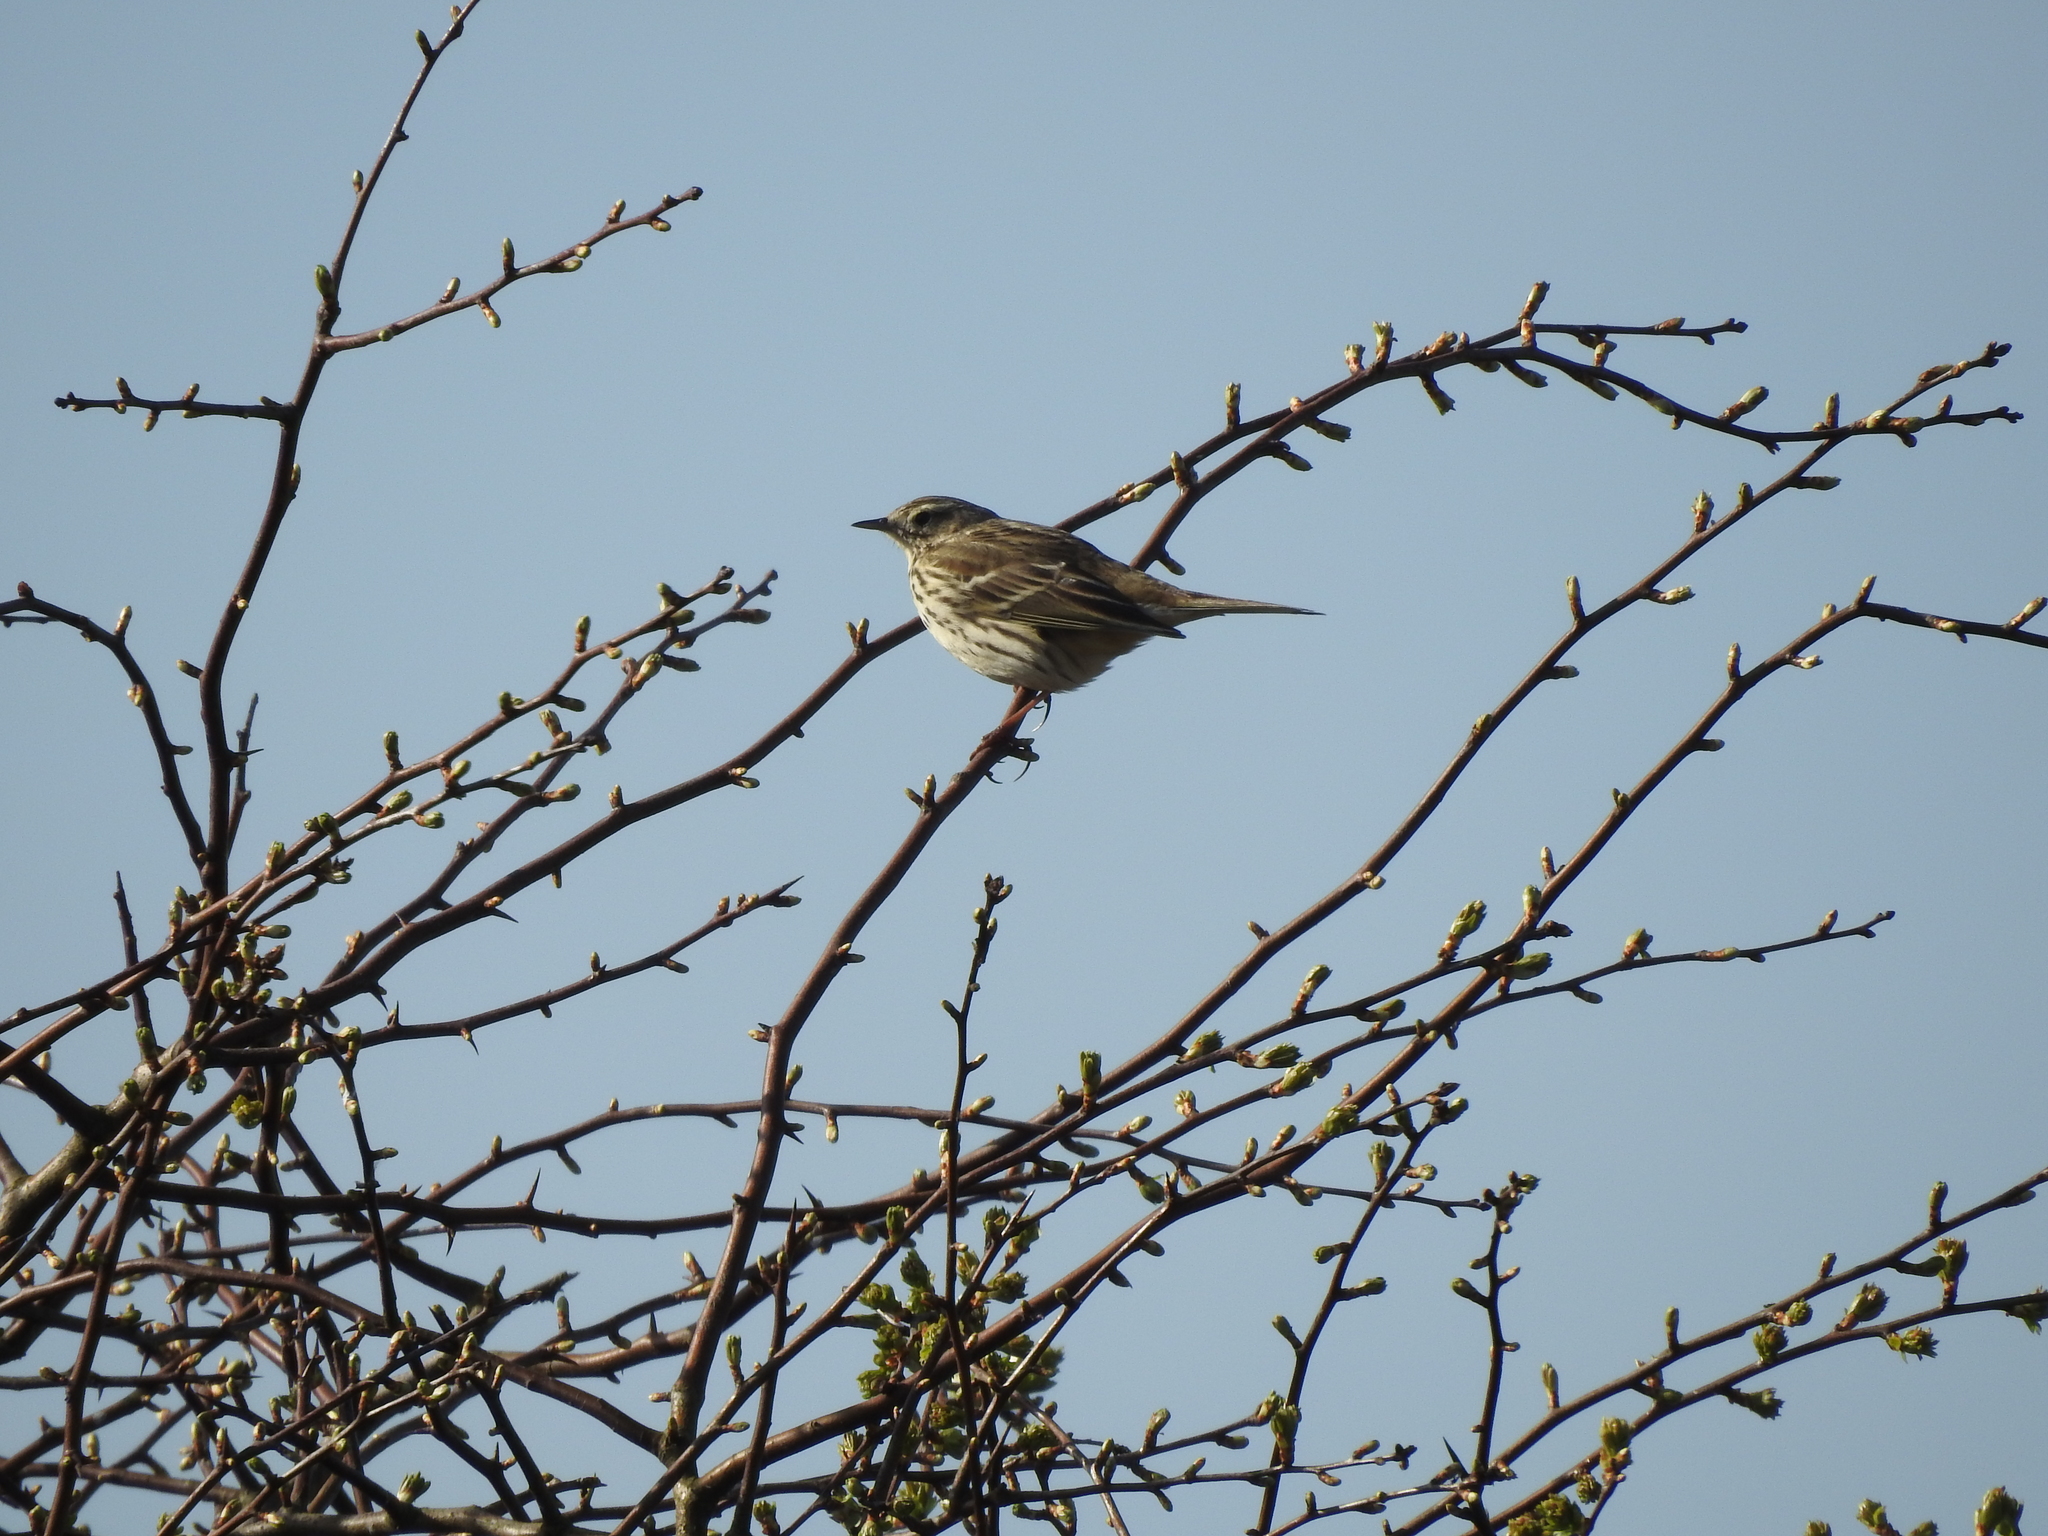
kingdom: Animalia
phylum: Chordata
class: Aves
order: Passeriformes
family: Motacillidae
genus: Anthus
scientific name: Anthus pratensis
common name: Meadow pipit
